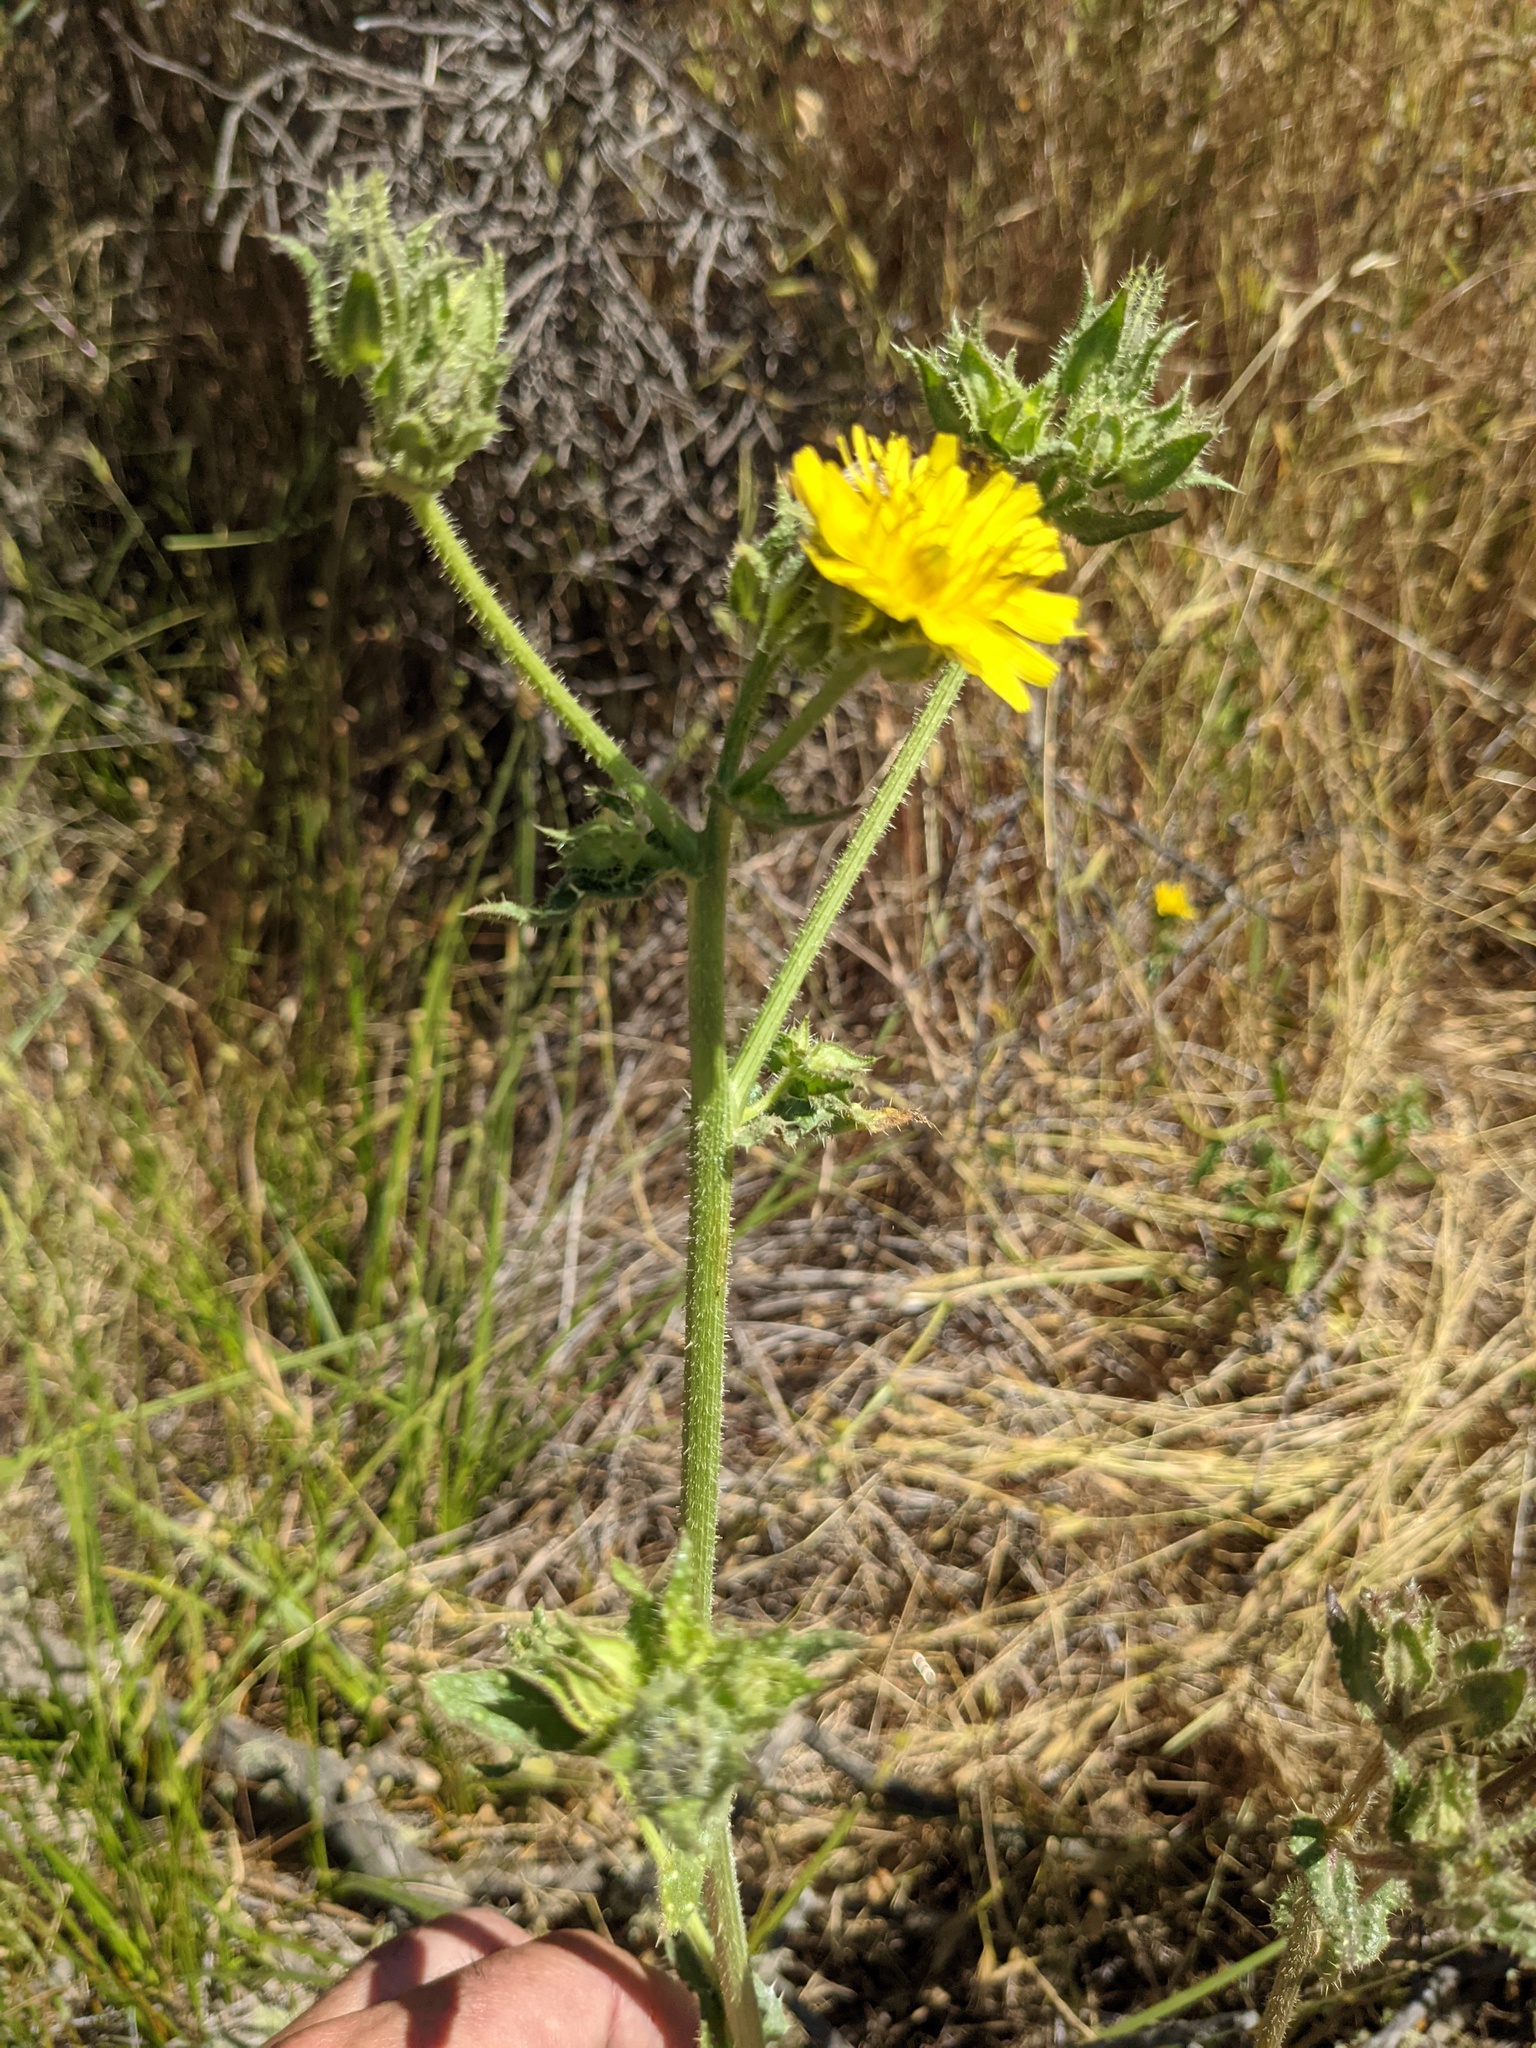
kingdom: Plantae
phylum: Tracheophyta
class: Magnoliopsida
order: Asterales
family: Asteraceae
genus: Helminthotheca
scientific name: Helminthotheca echioides
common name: Ox-tongue
